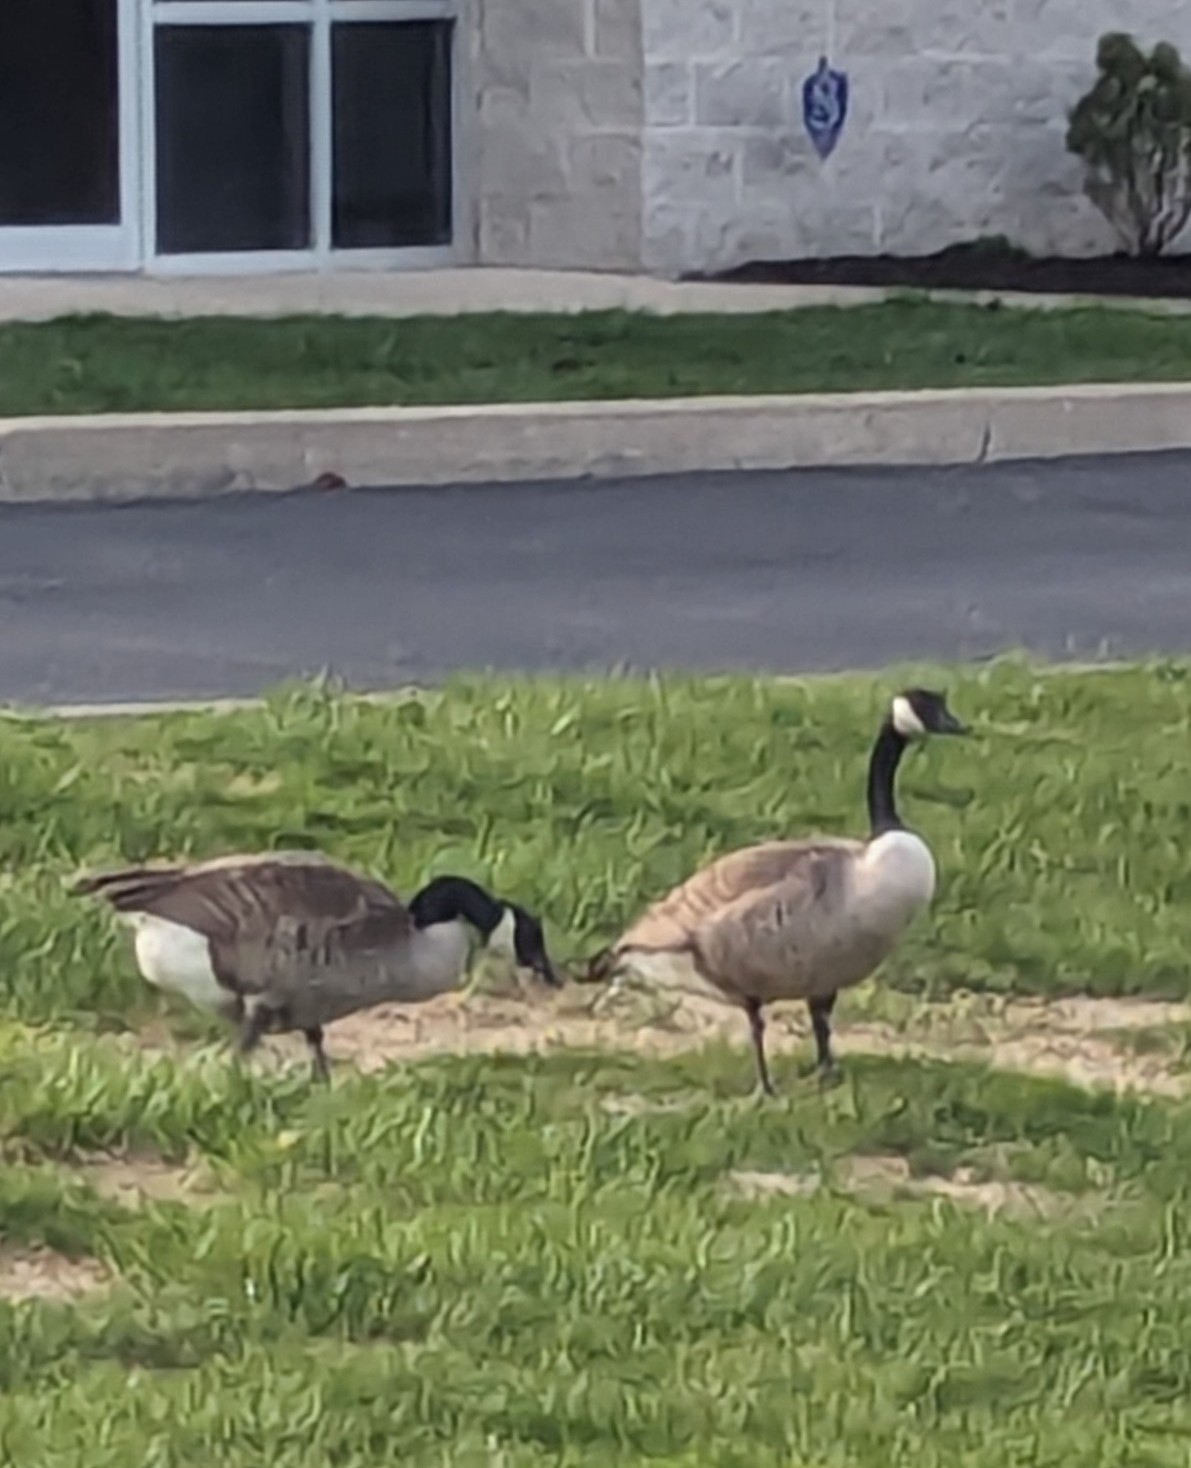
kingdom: Animalia
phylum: Chordata
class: Aves
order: Anseriformes
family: Anatidae
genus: Branta
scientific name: Branta canadensis
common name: Canada goose
